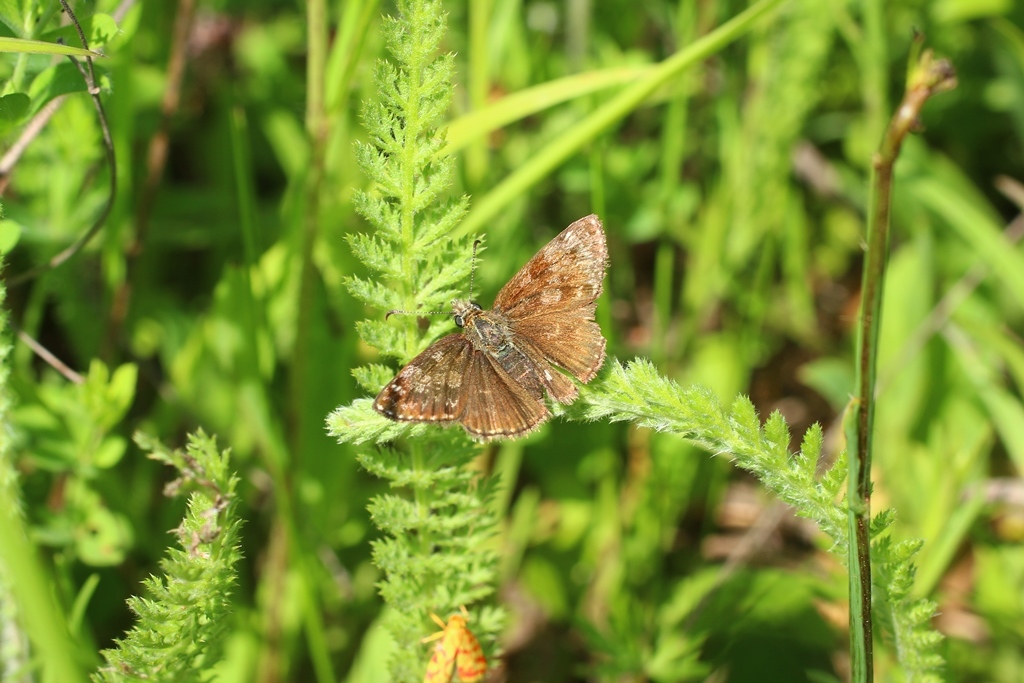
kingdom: Animalia
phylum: Arthropoda
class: Insecta
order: Lepidoptera
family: Hesperiidae
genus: Erynnis
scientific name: Erynnis tages
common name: Dingy skipper
